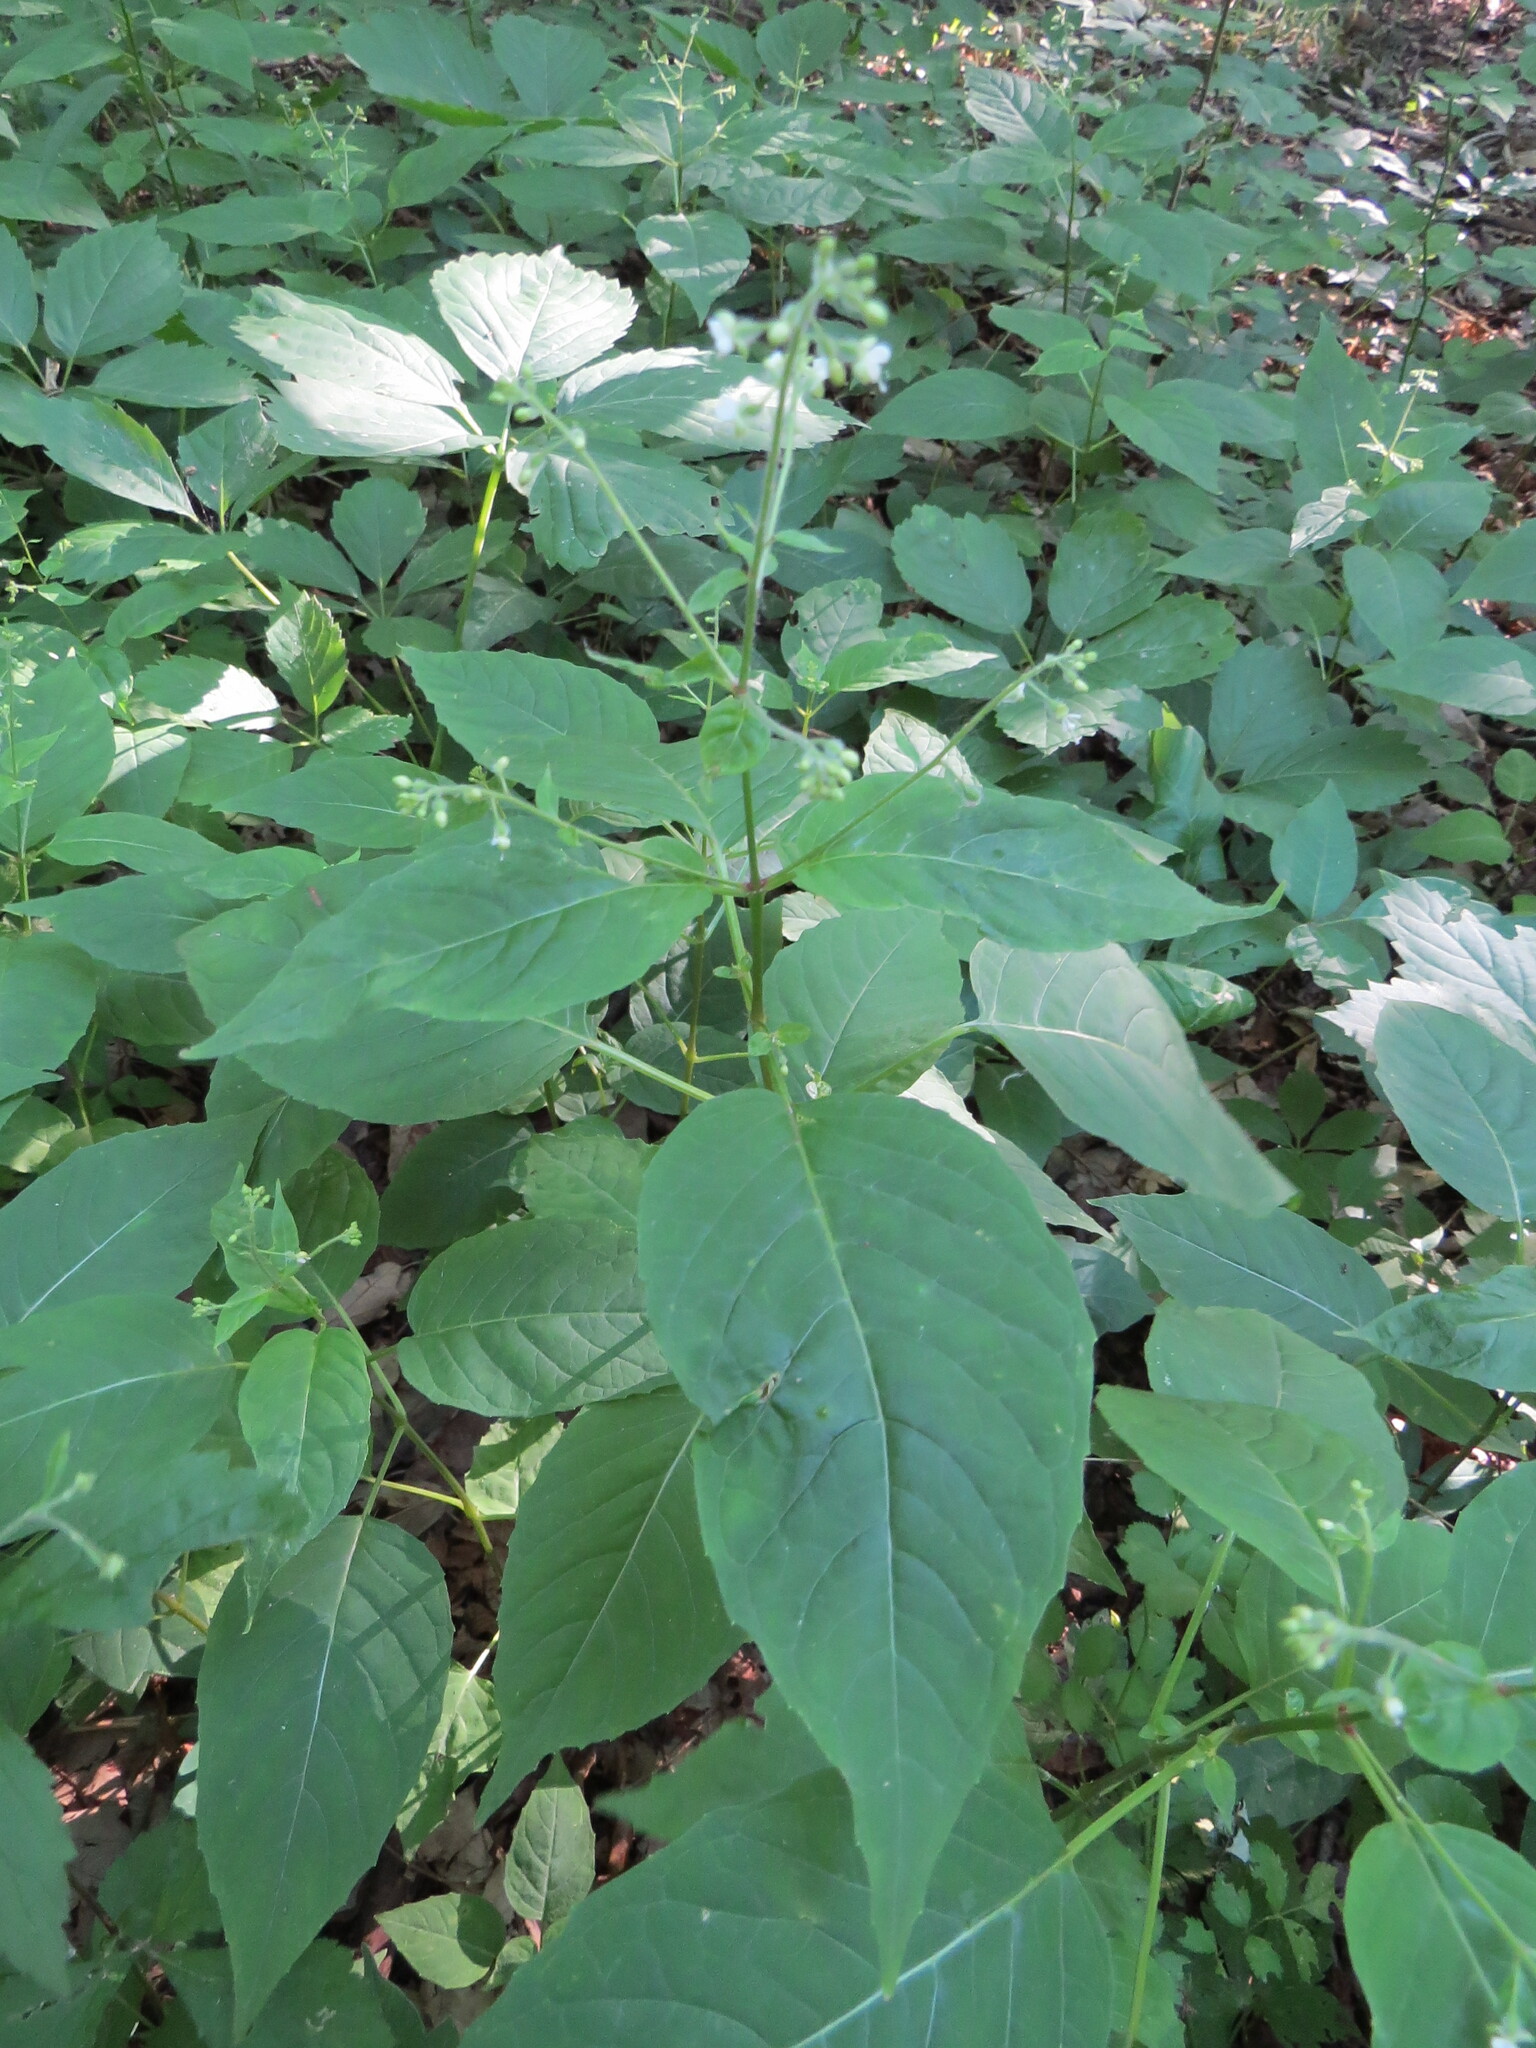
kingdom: Plantae
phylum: Tracheophyta
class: Magnoliopsida
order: Myrtales
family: Onagraceae
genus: Circaea
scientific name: Circaea canadensis
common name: Broad-leaved enchanter's nightshade
